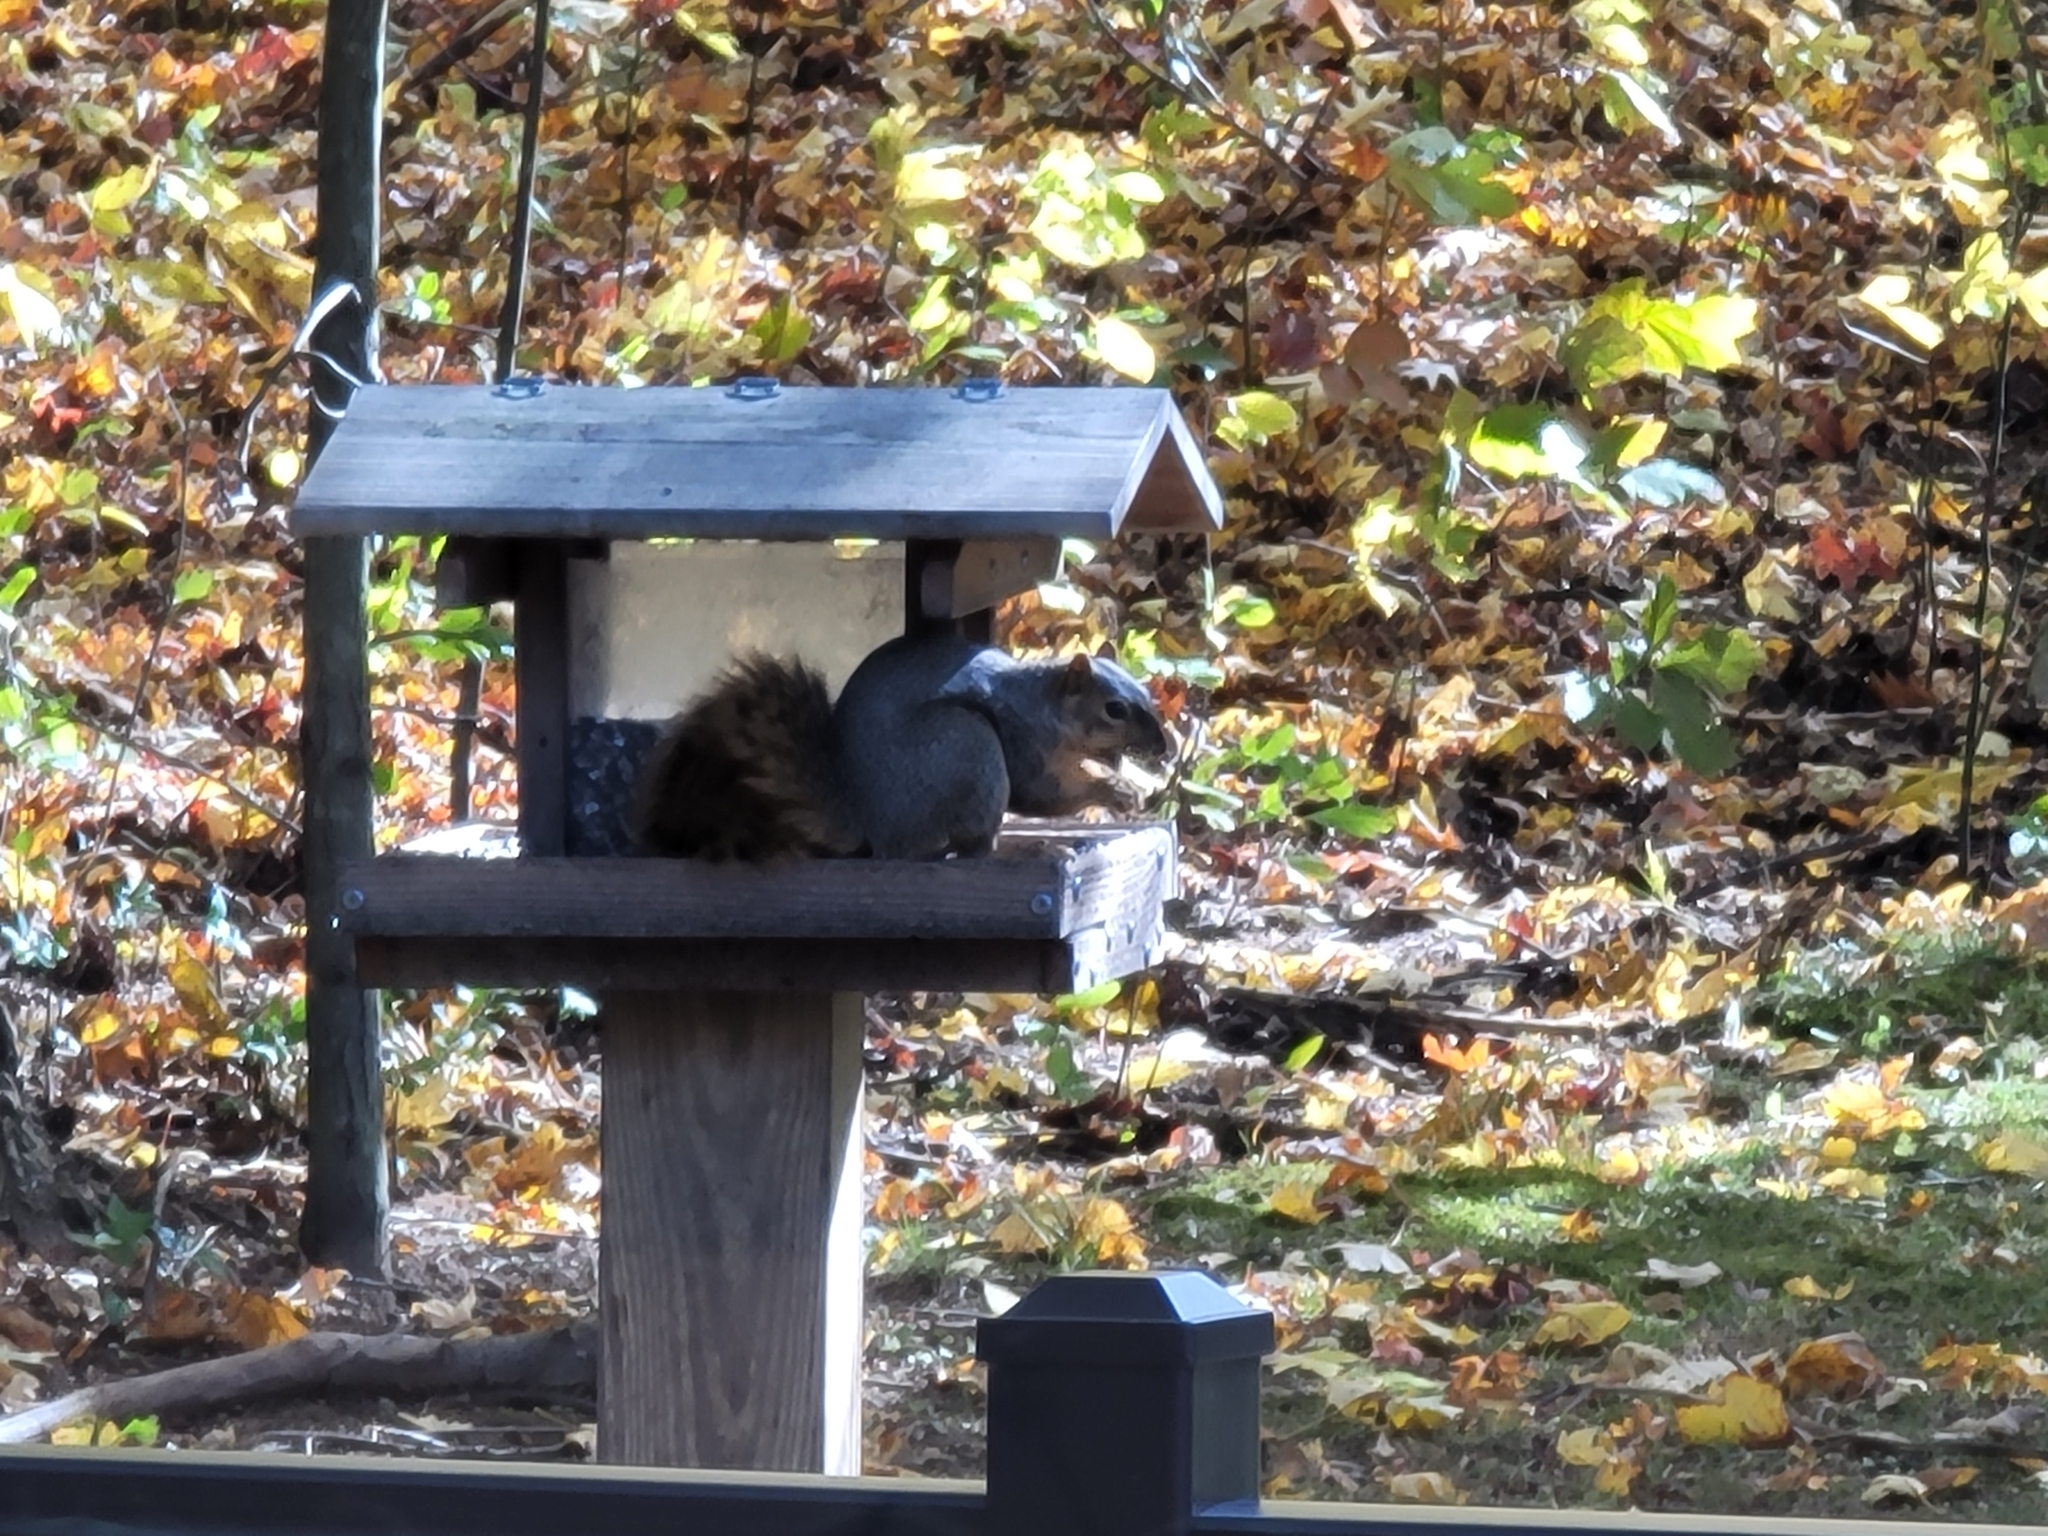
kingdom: Animalia
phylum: Chordata
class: Mammalia
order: Rodentia
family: Sciuridae
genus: Sciurus
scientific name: Sciurus carolinensis
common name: Eastern gray squirrel
